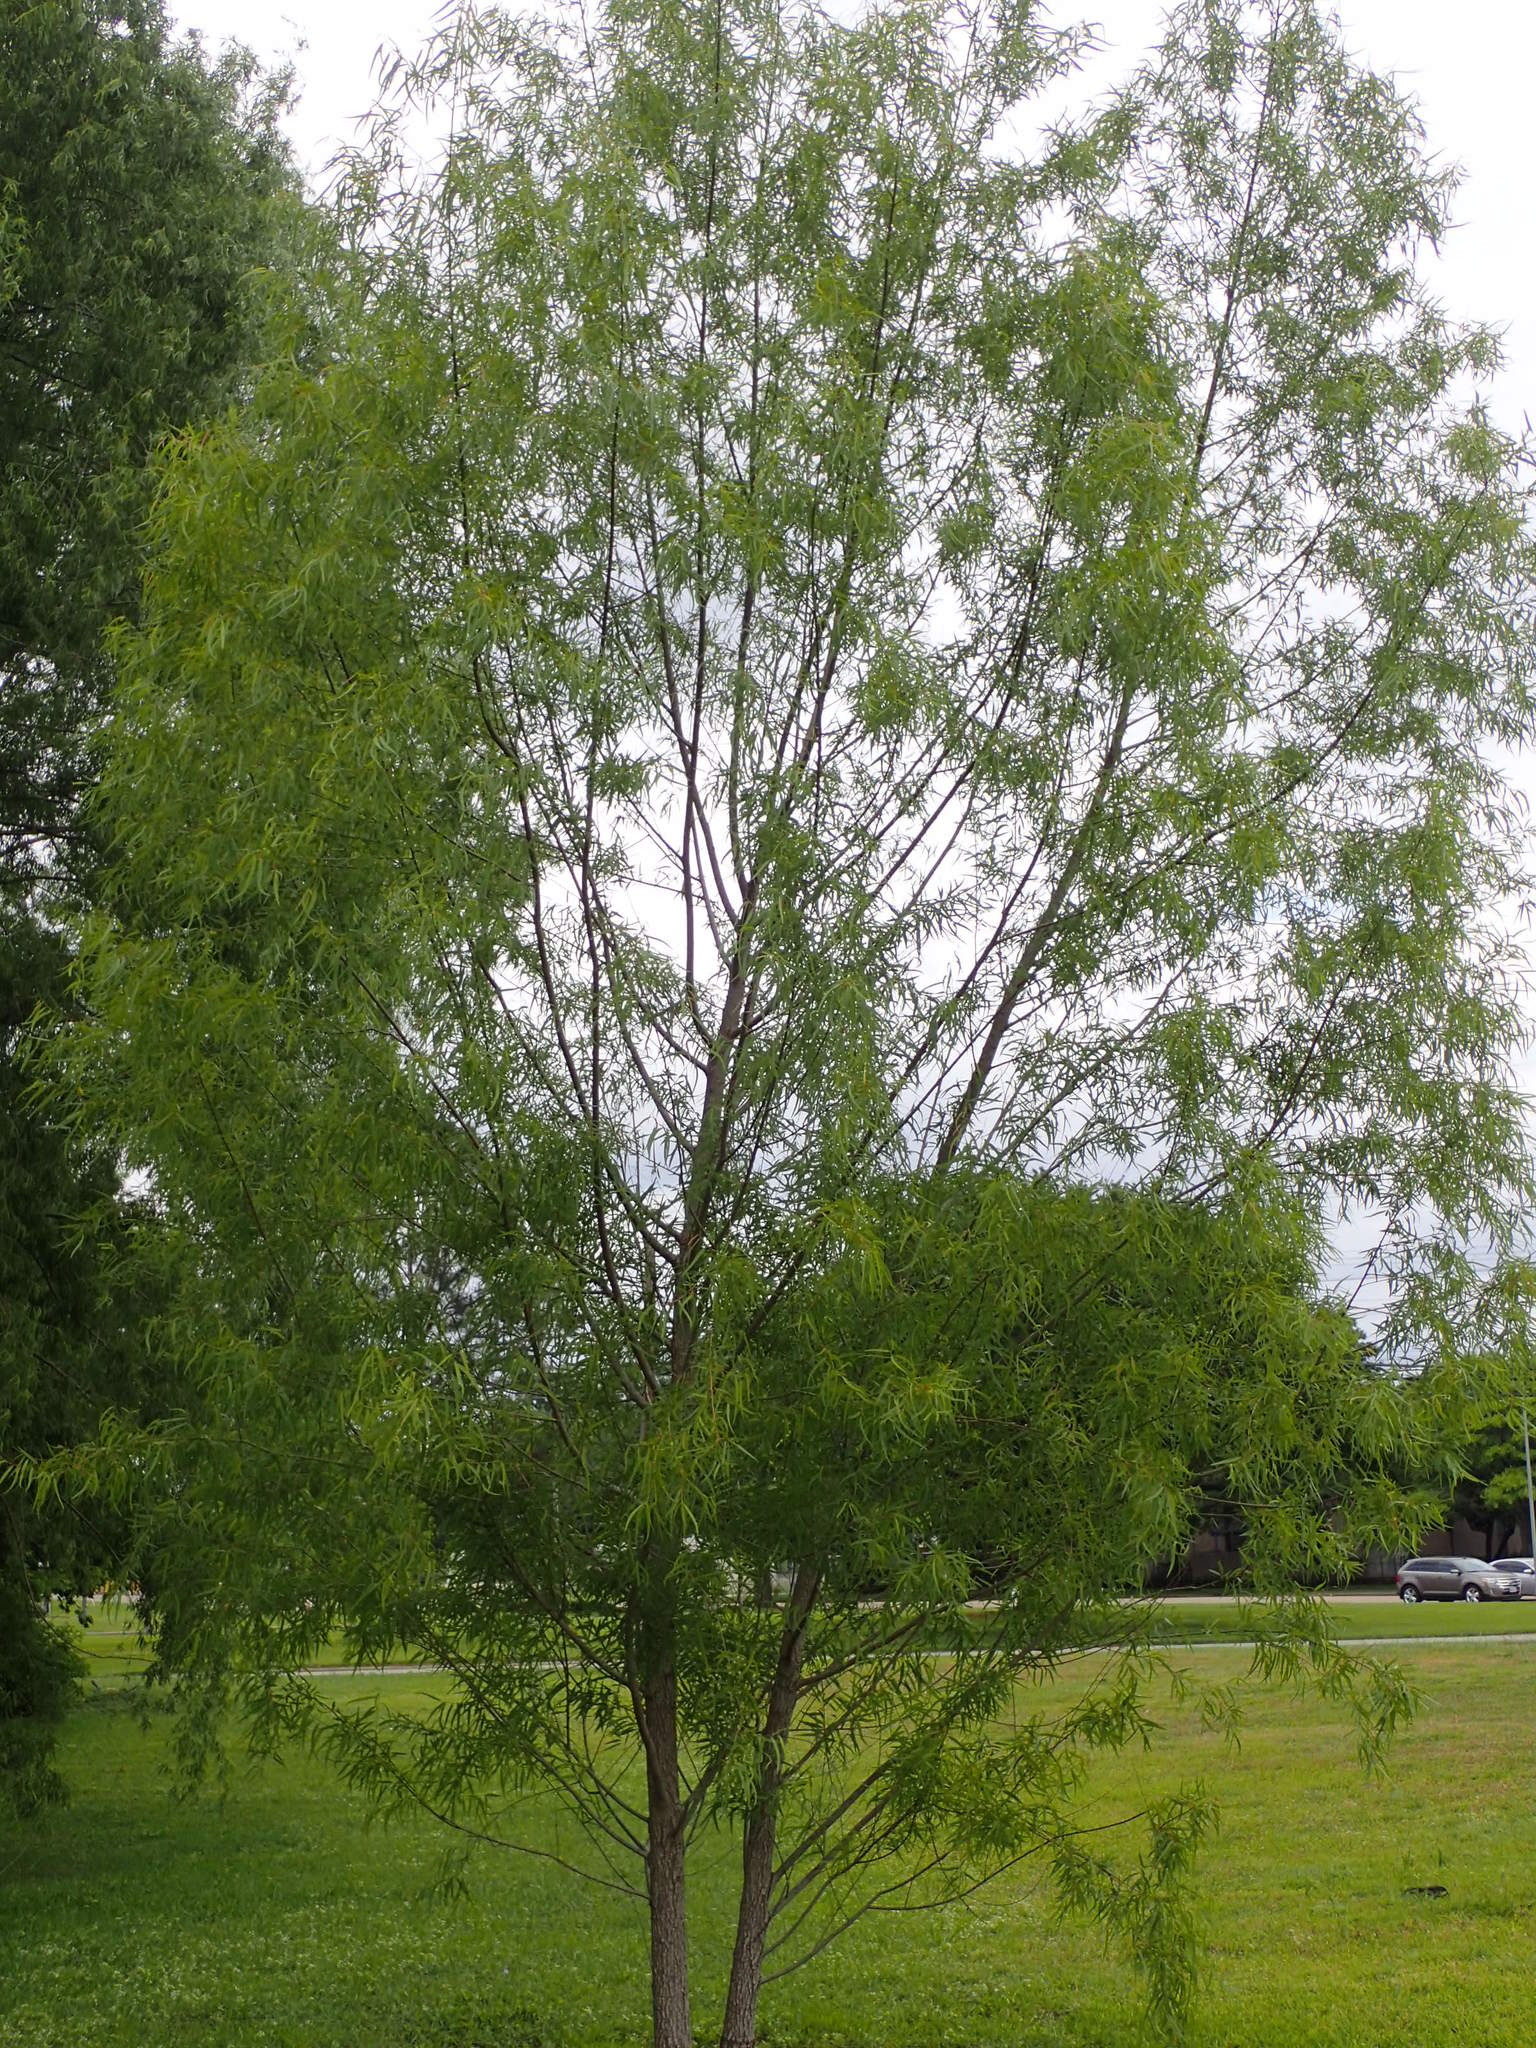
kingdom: Plantae
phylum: Tracheophyta
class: Magnoliopsida
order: Malpighiales
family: Salicaceae
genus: Salix
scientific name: Salix nigra
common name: Black willow
